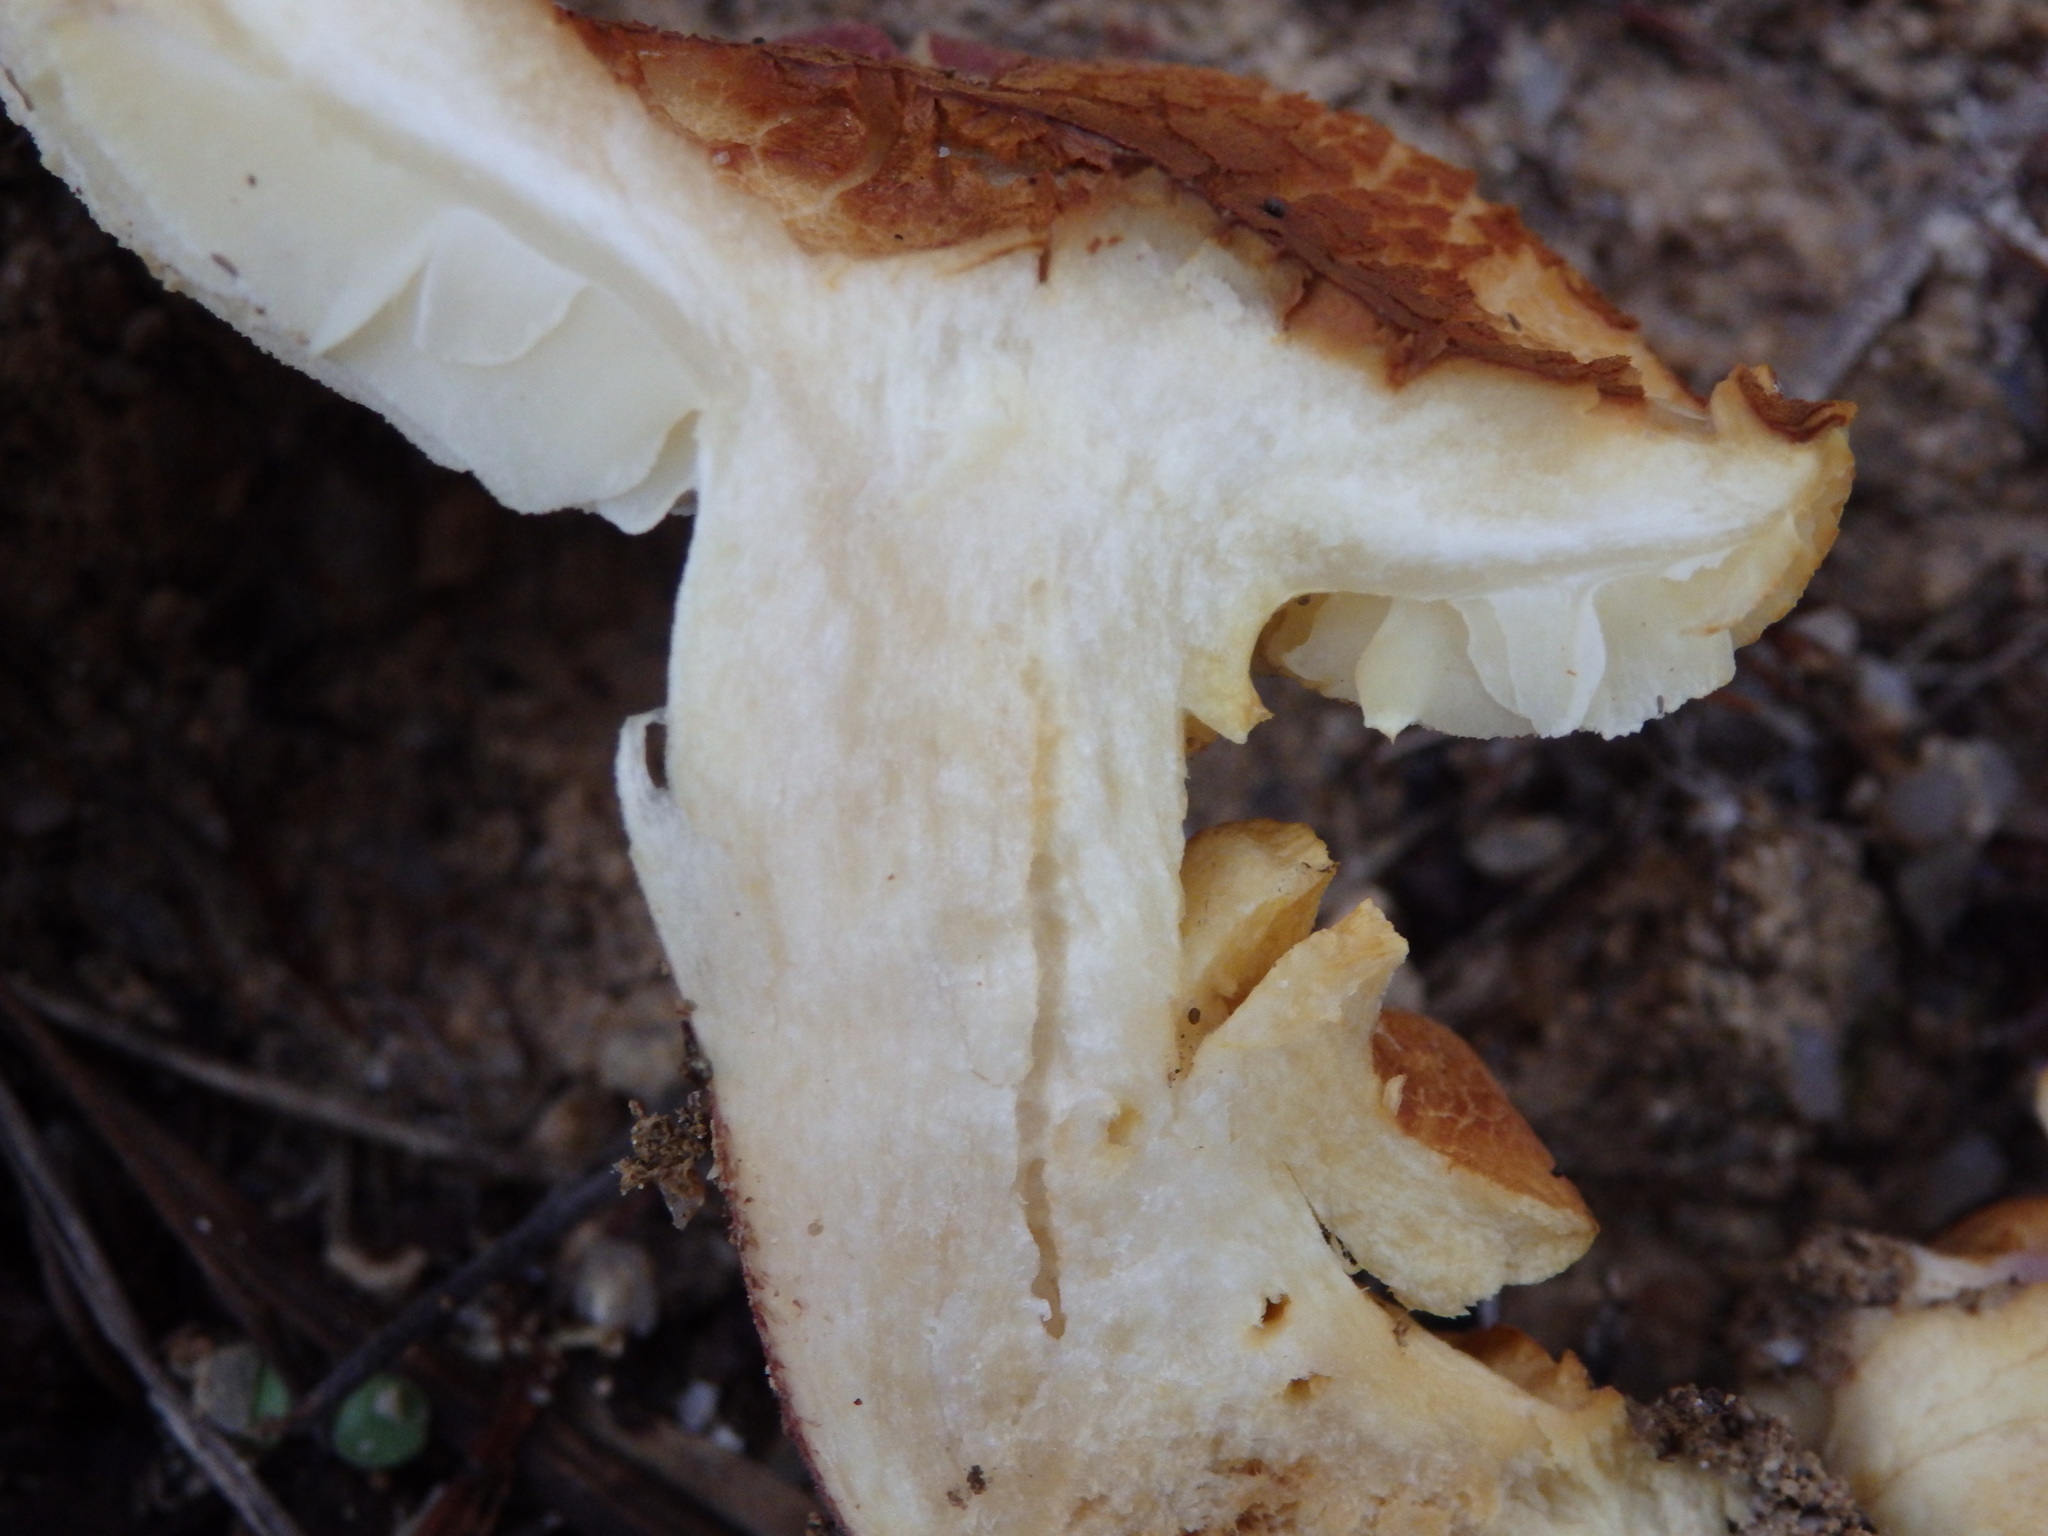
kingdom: Fungi
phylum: Basidiomycota
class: Agaricomycetes
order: Agaricales
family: Tricholomataceae
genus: Tricholomopsis
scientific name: Tricholomopsis rutilans
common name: Plums and custard
